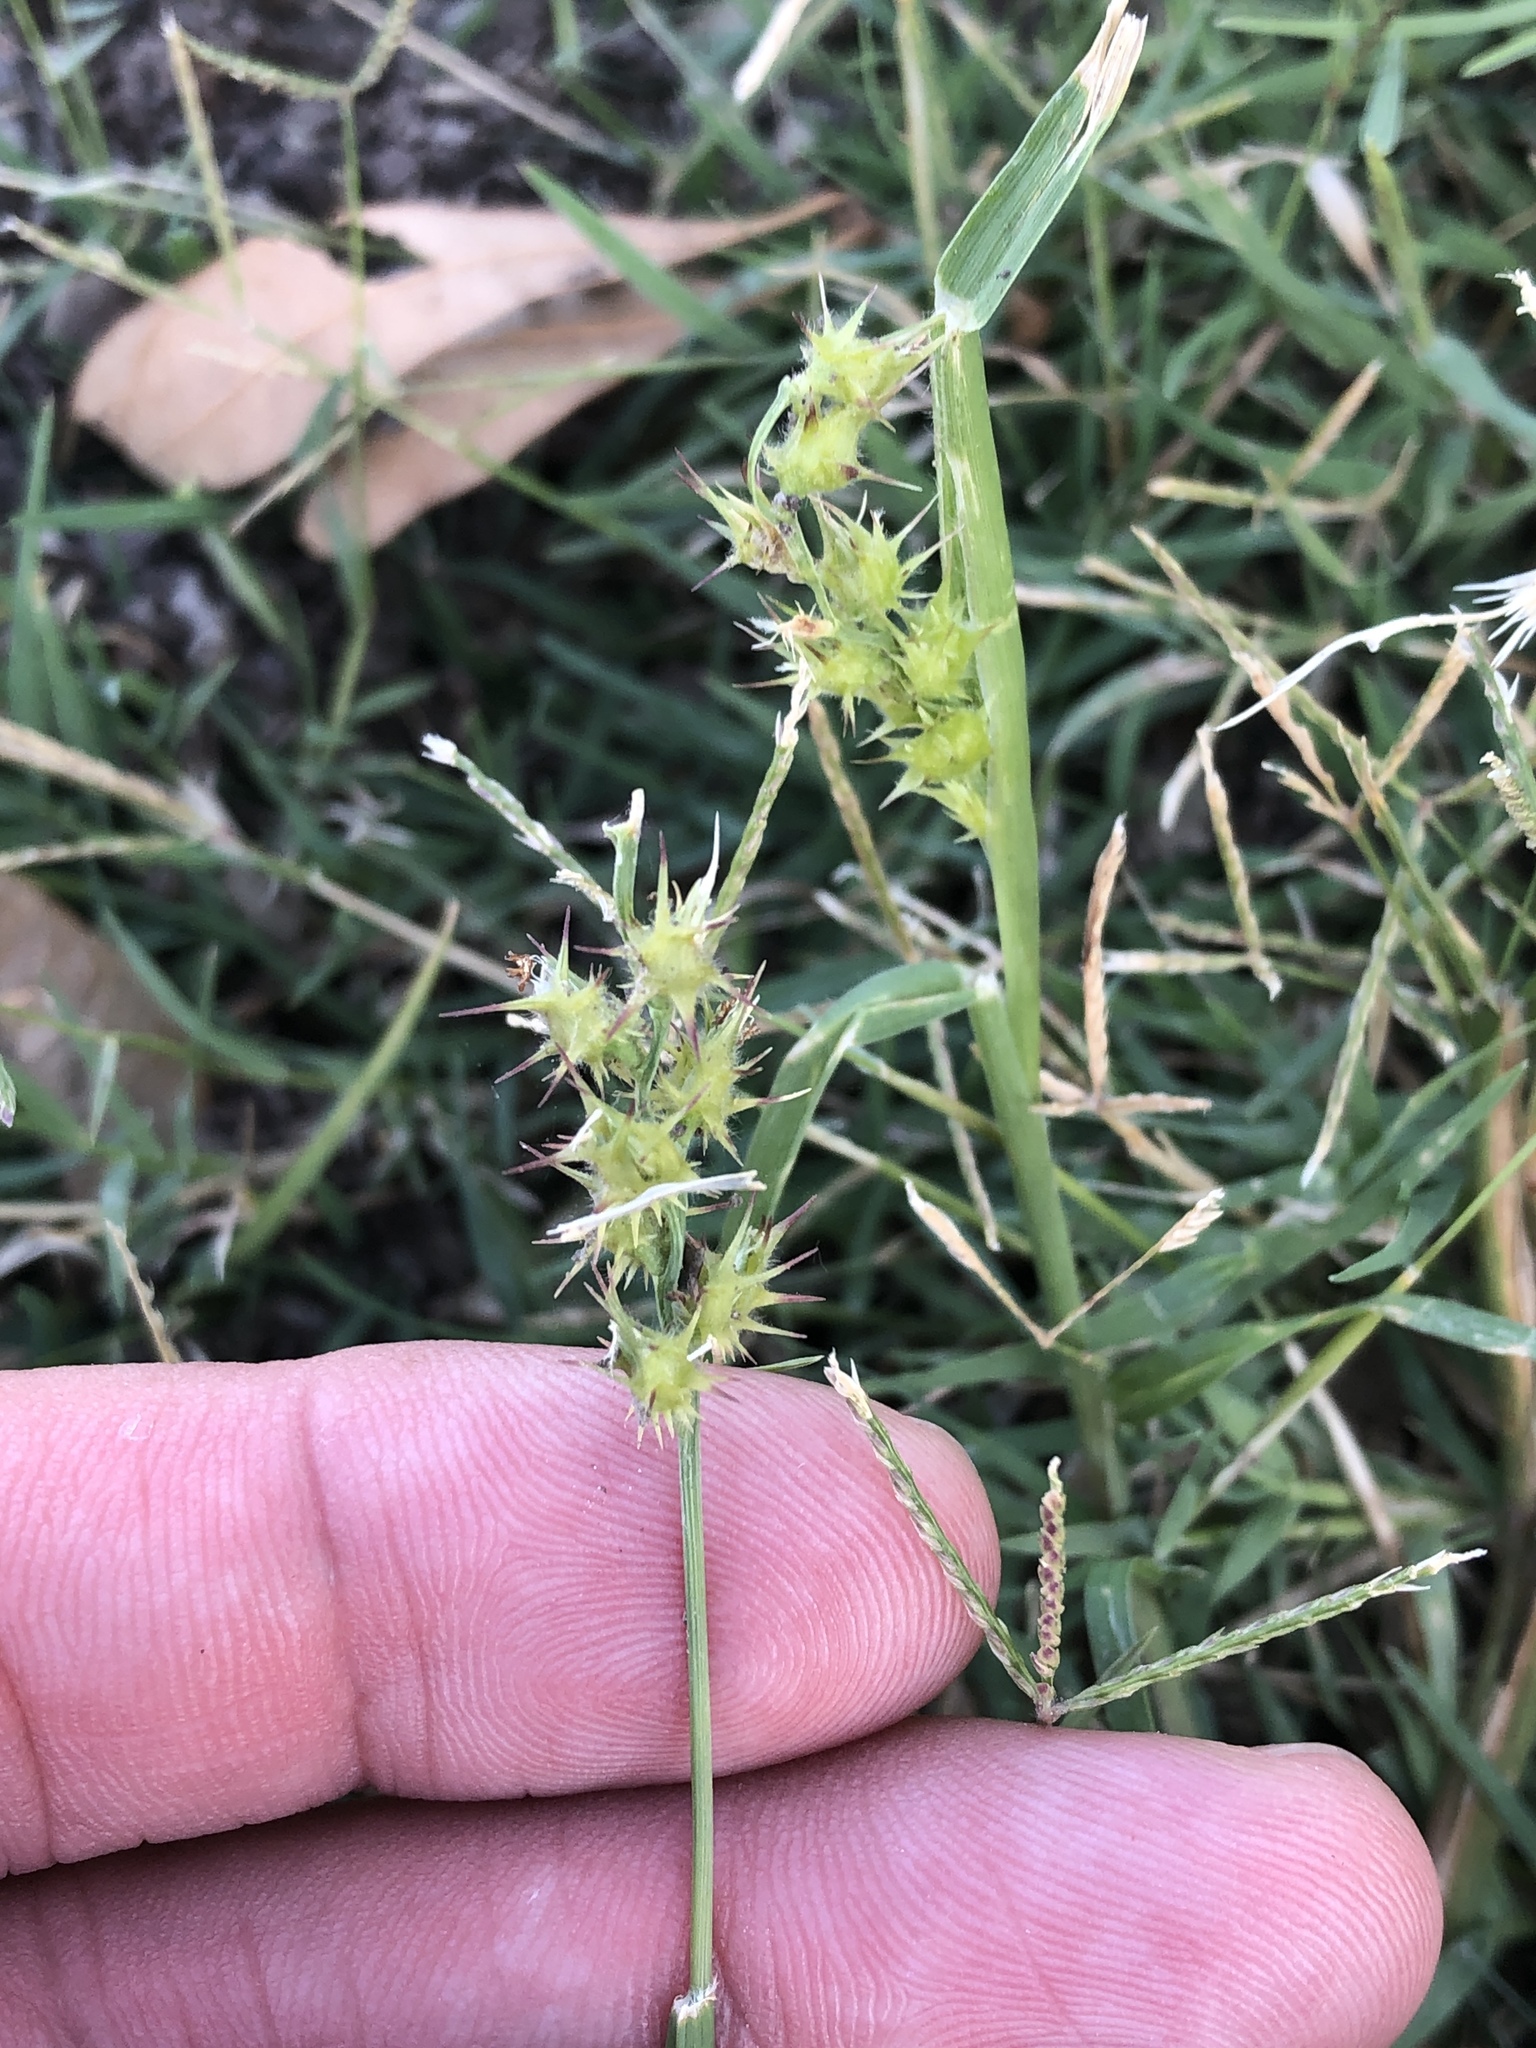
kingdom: Plantae
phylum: Tracheophyta
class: Liliopsida
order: Poales
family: Poaceae
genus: Cenchrus
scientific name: Cenchrus spinifex
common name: Coast sandbur
